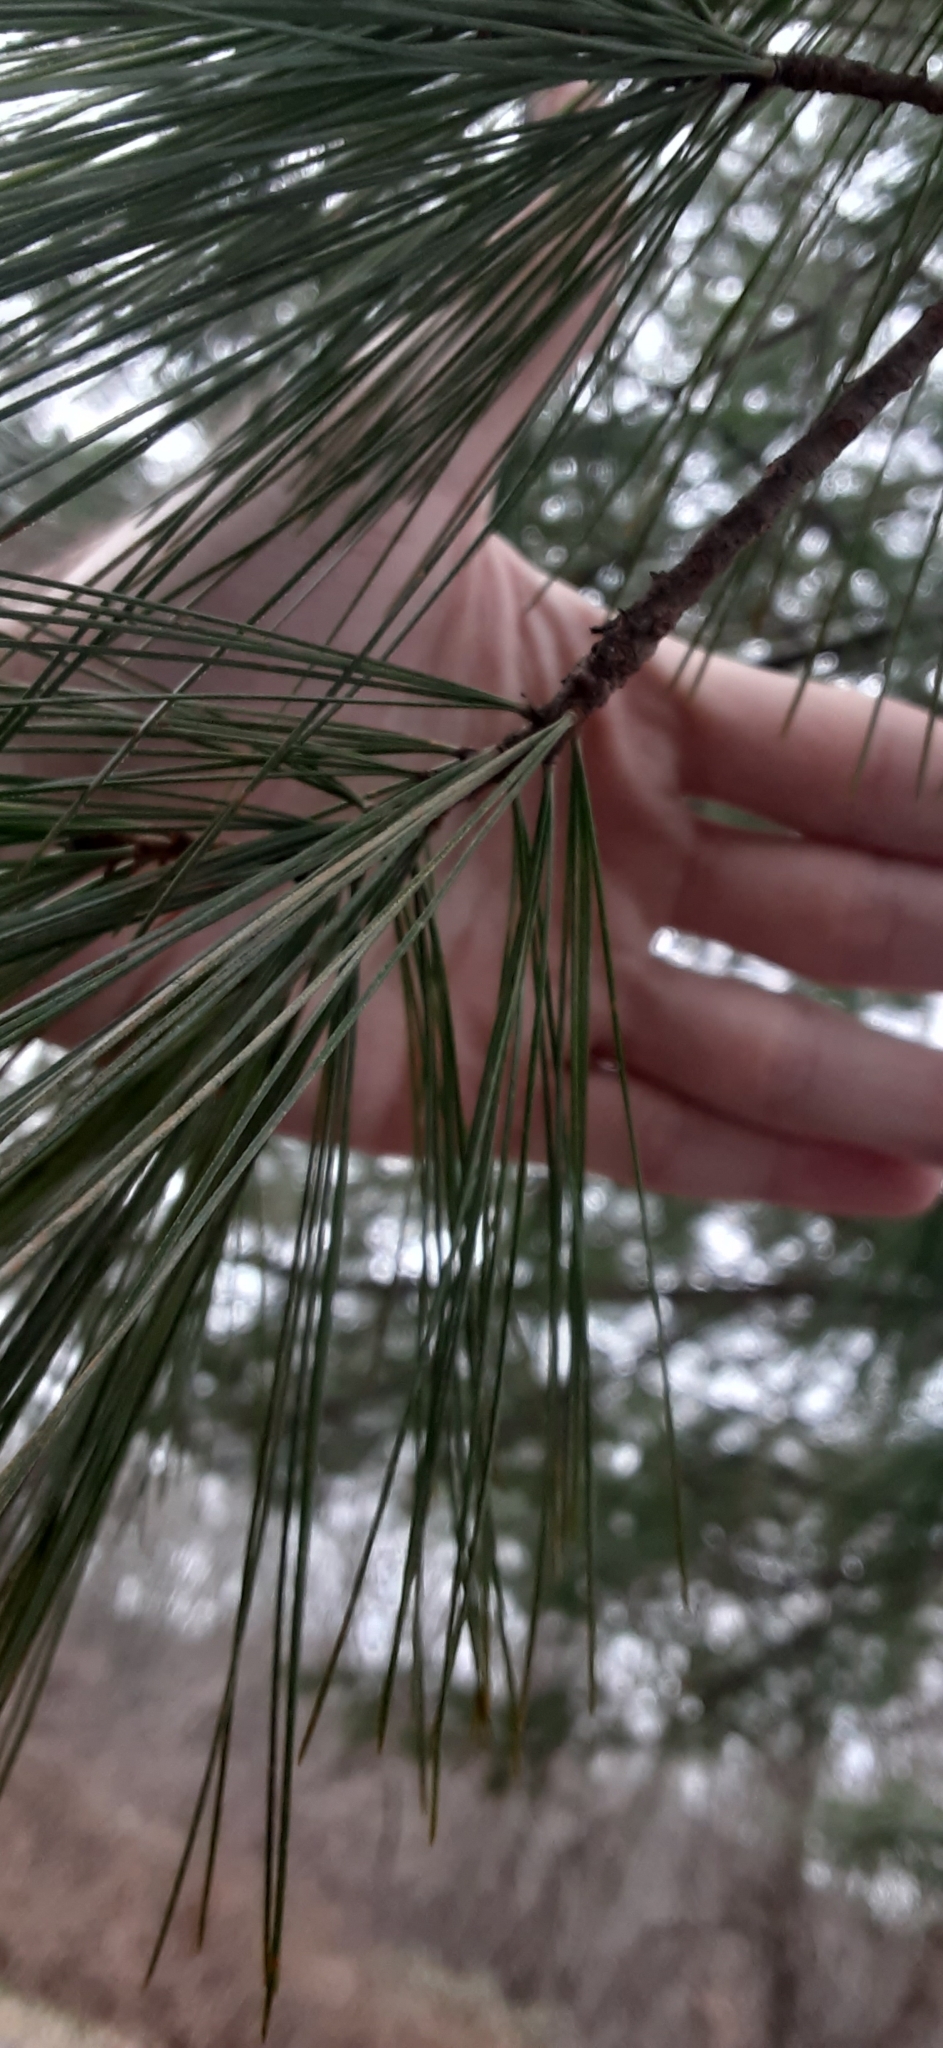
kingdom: Plantae
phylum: Tracheophyta
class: Pinopsida
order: Pinales
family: Pinaceae
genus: Pinus
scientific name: Pinus strobus
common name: Weymouth pine
